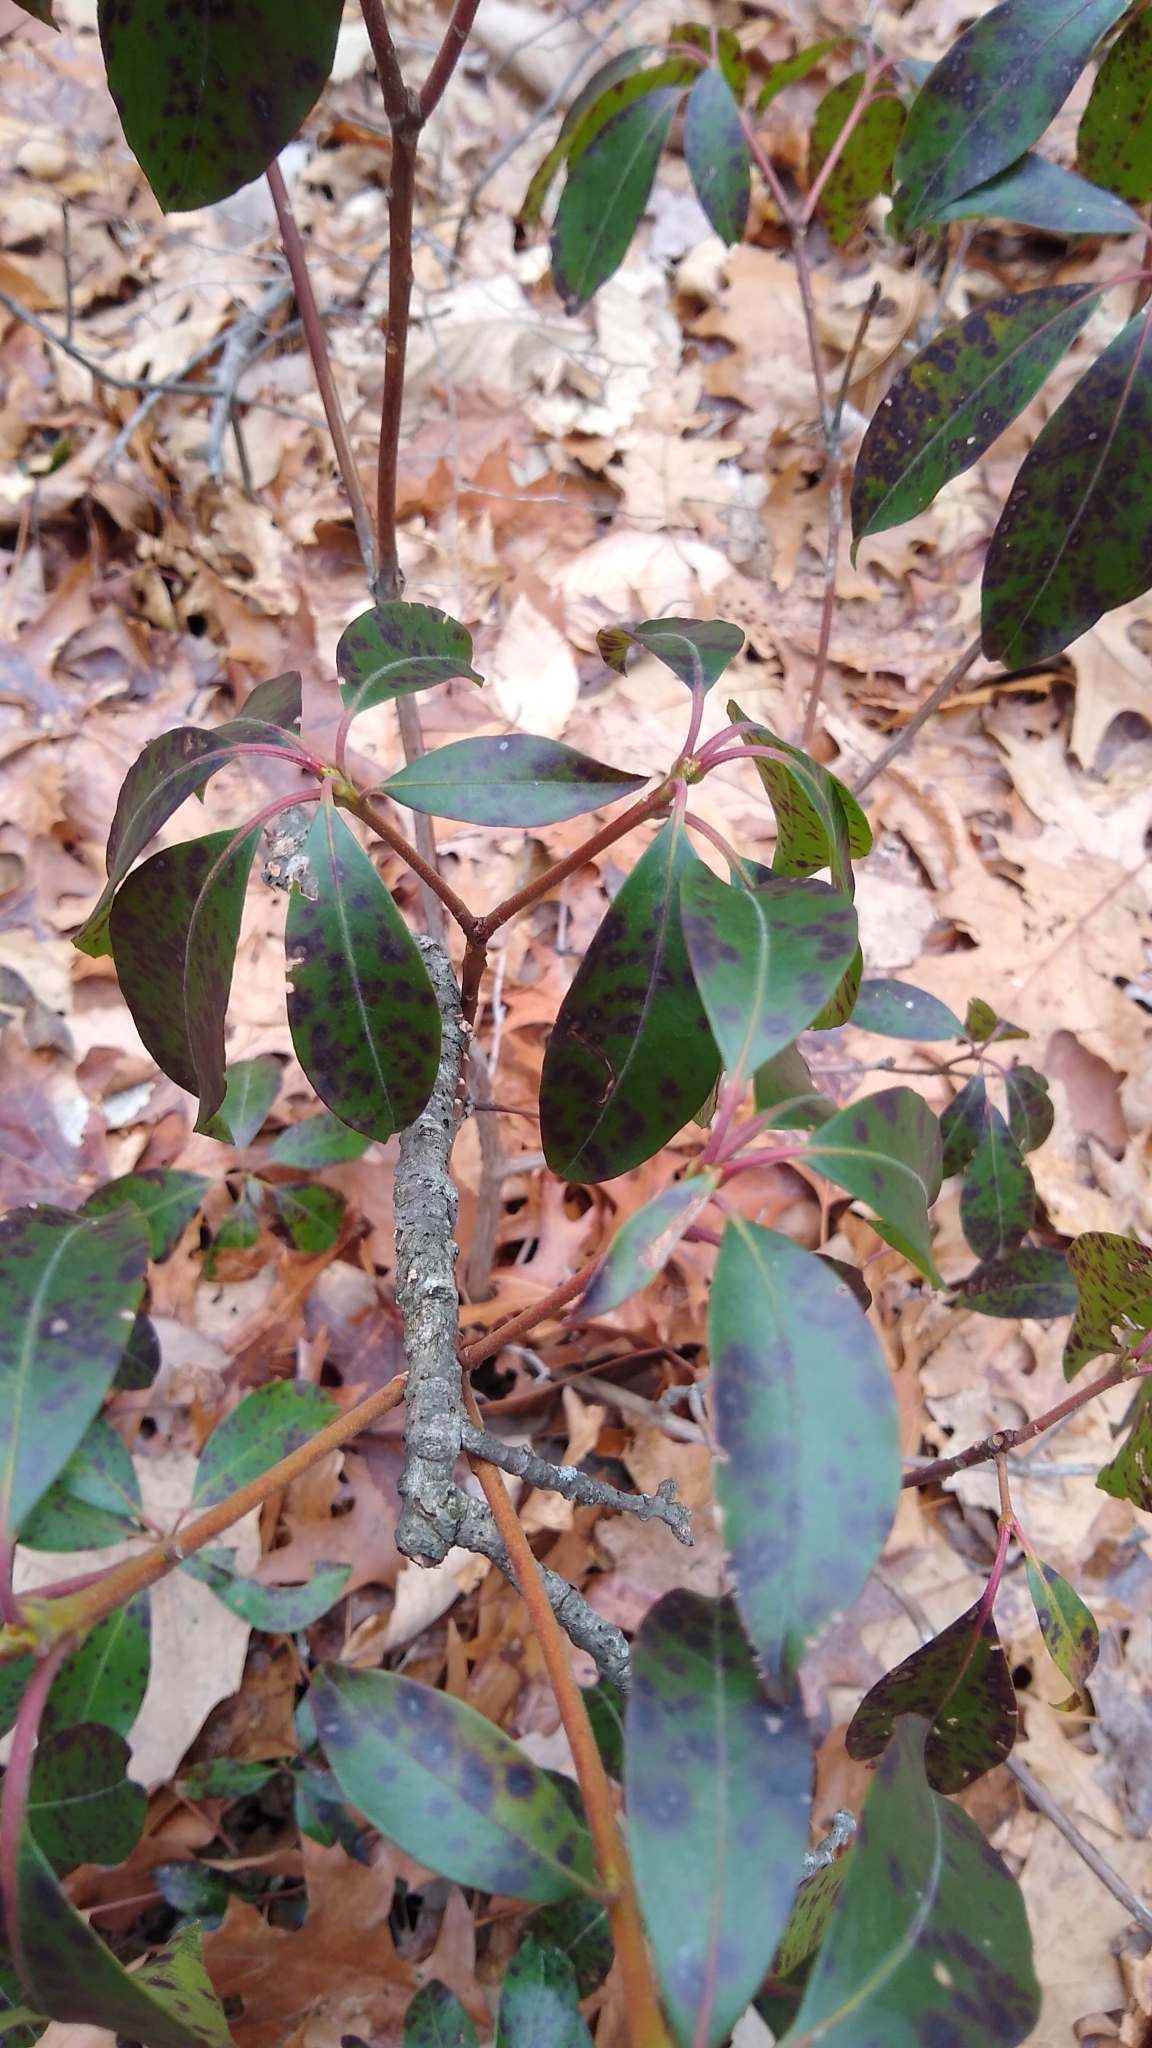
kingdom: Fungi
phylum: Ascomycota
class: Dothideomycetes
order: Mycosphaerellales
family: Mycosphaerellaceae
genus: Mycosphaerella
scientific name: Mycosphaerella colorata
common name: Mountain laurel leaf spot
